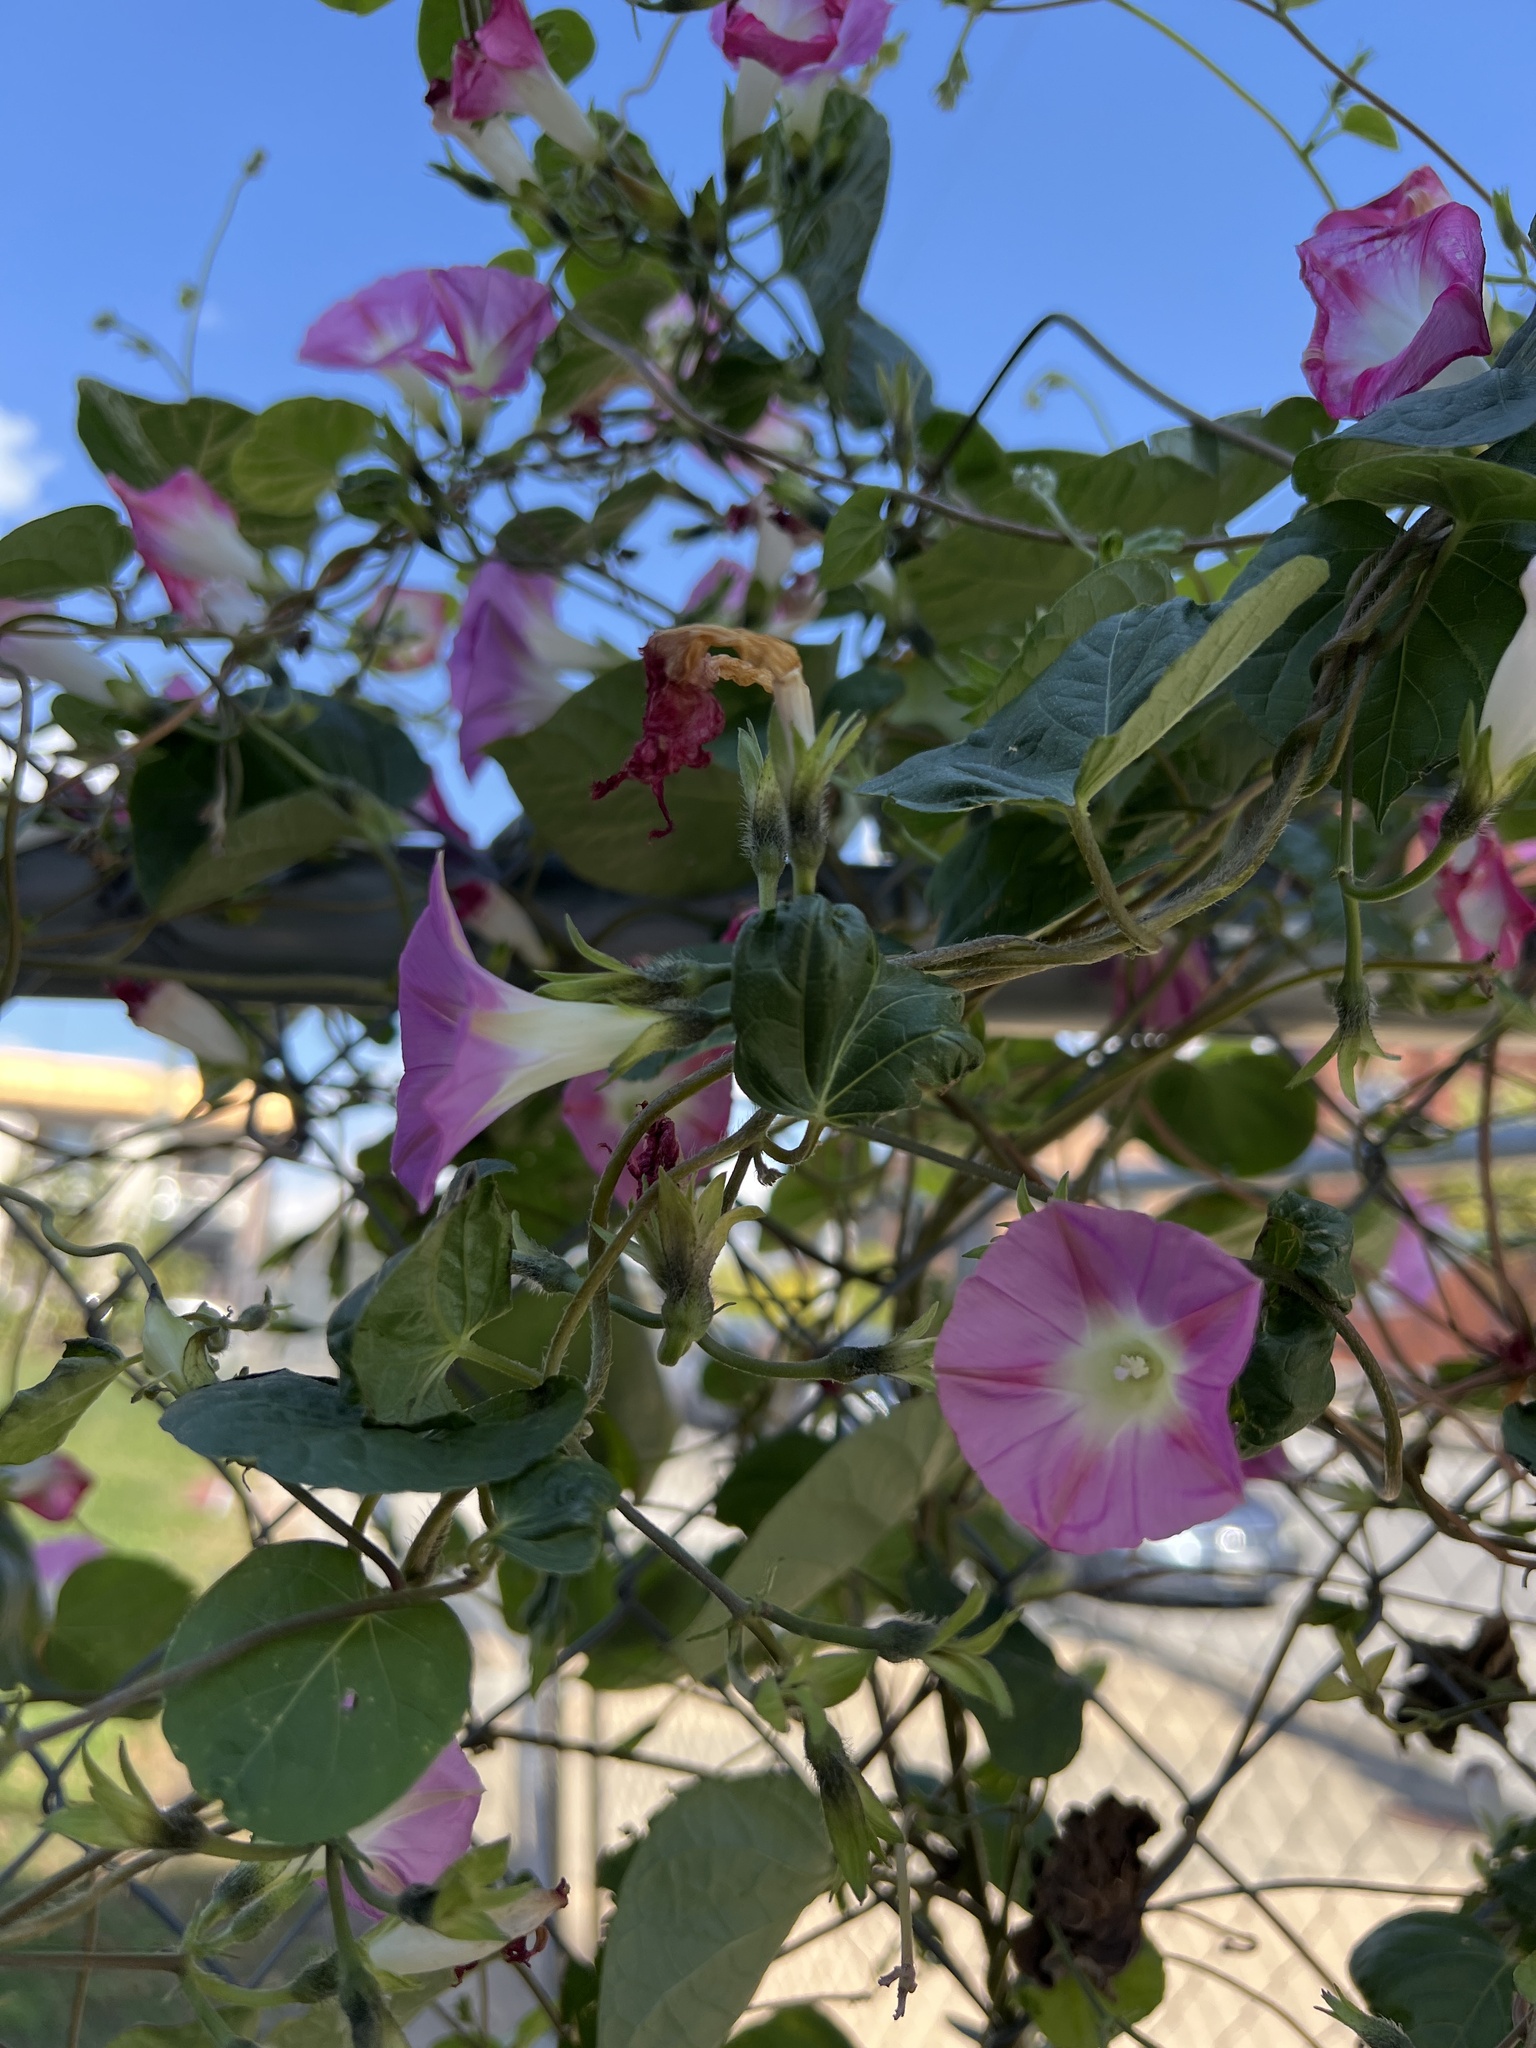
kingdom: Plantae
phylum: Tracheophyta
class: Magnoliopsida
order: Solanales
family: Convolvulaceae
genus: Ipomoea
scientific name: Ipomoea purpurea
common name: Common morning-glory
